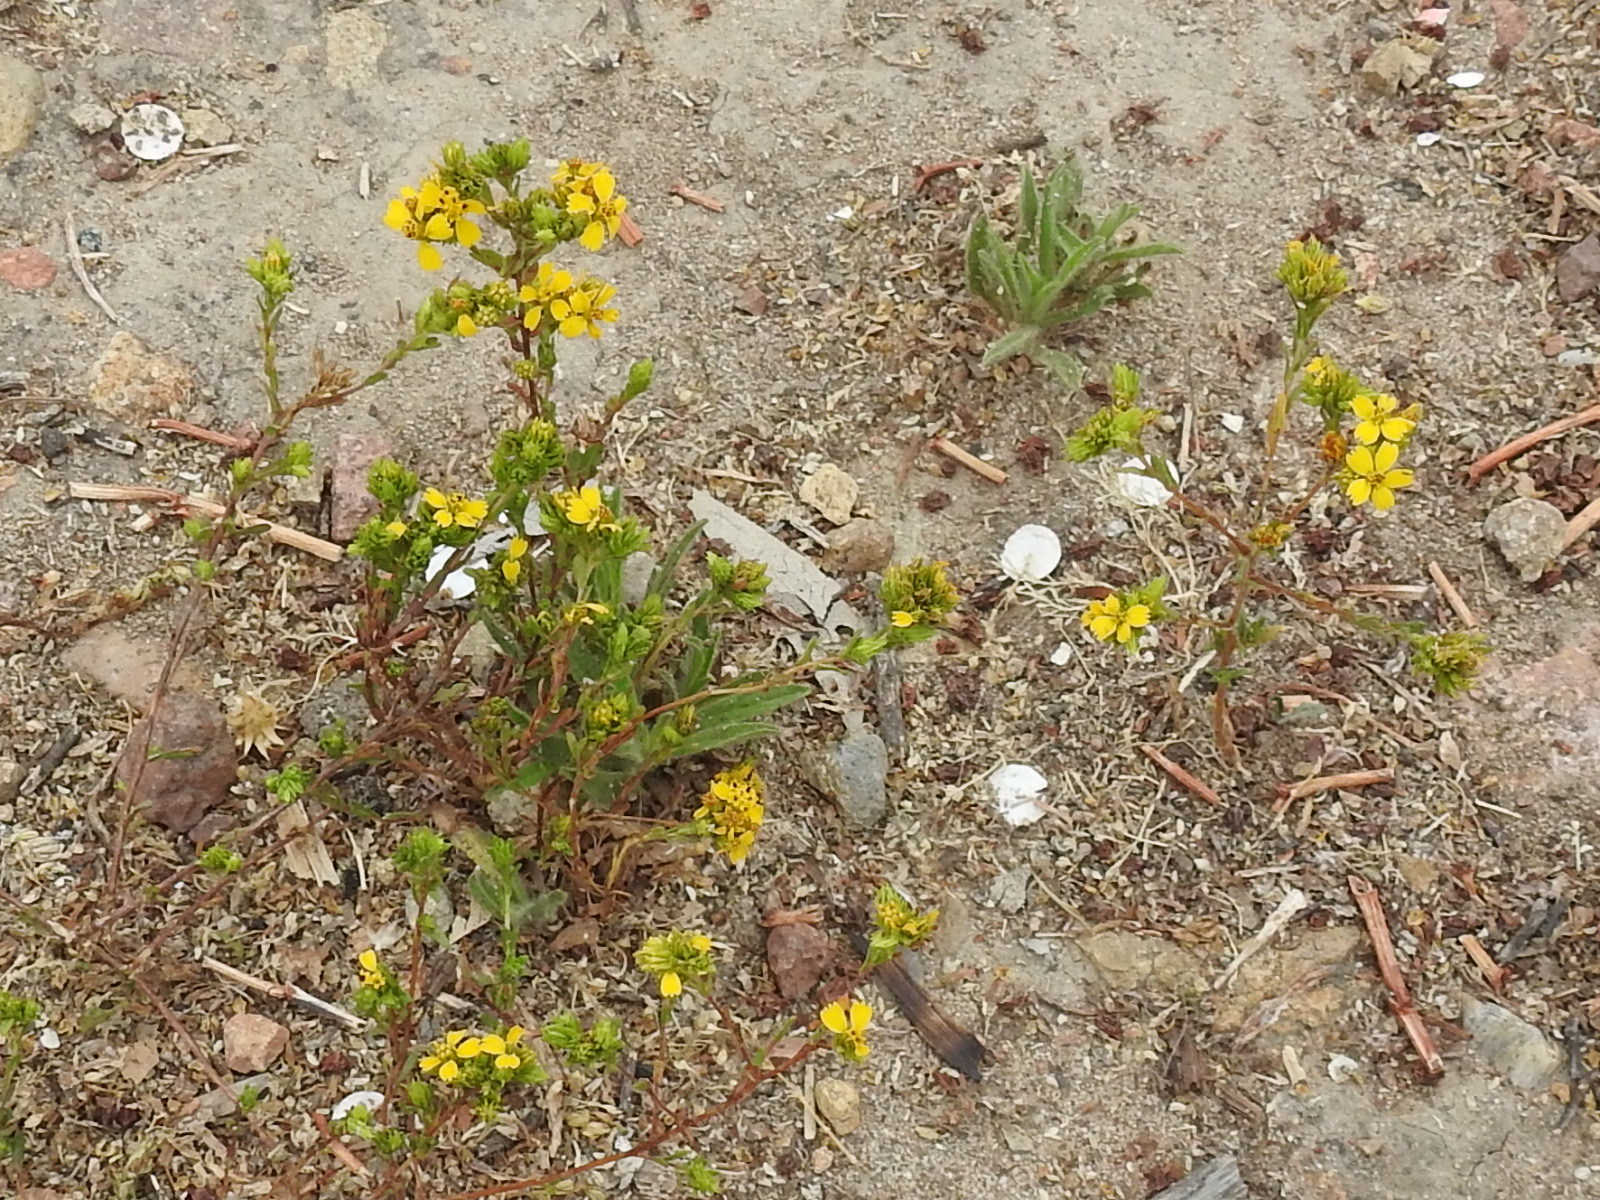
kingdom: Plantae
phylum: Tracheophyta
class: Magnoliopsida
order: Asterales
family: Asteraceae
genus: Deinandra
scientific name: Deinandra fasciculata
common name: Clustered tarweed
